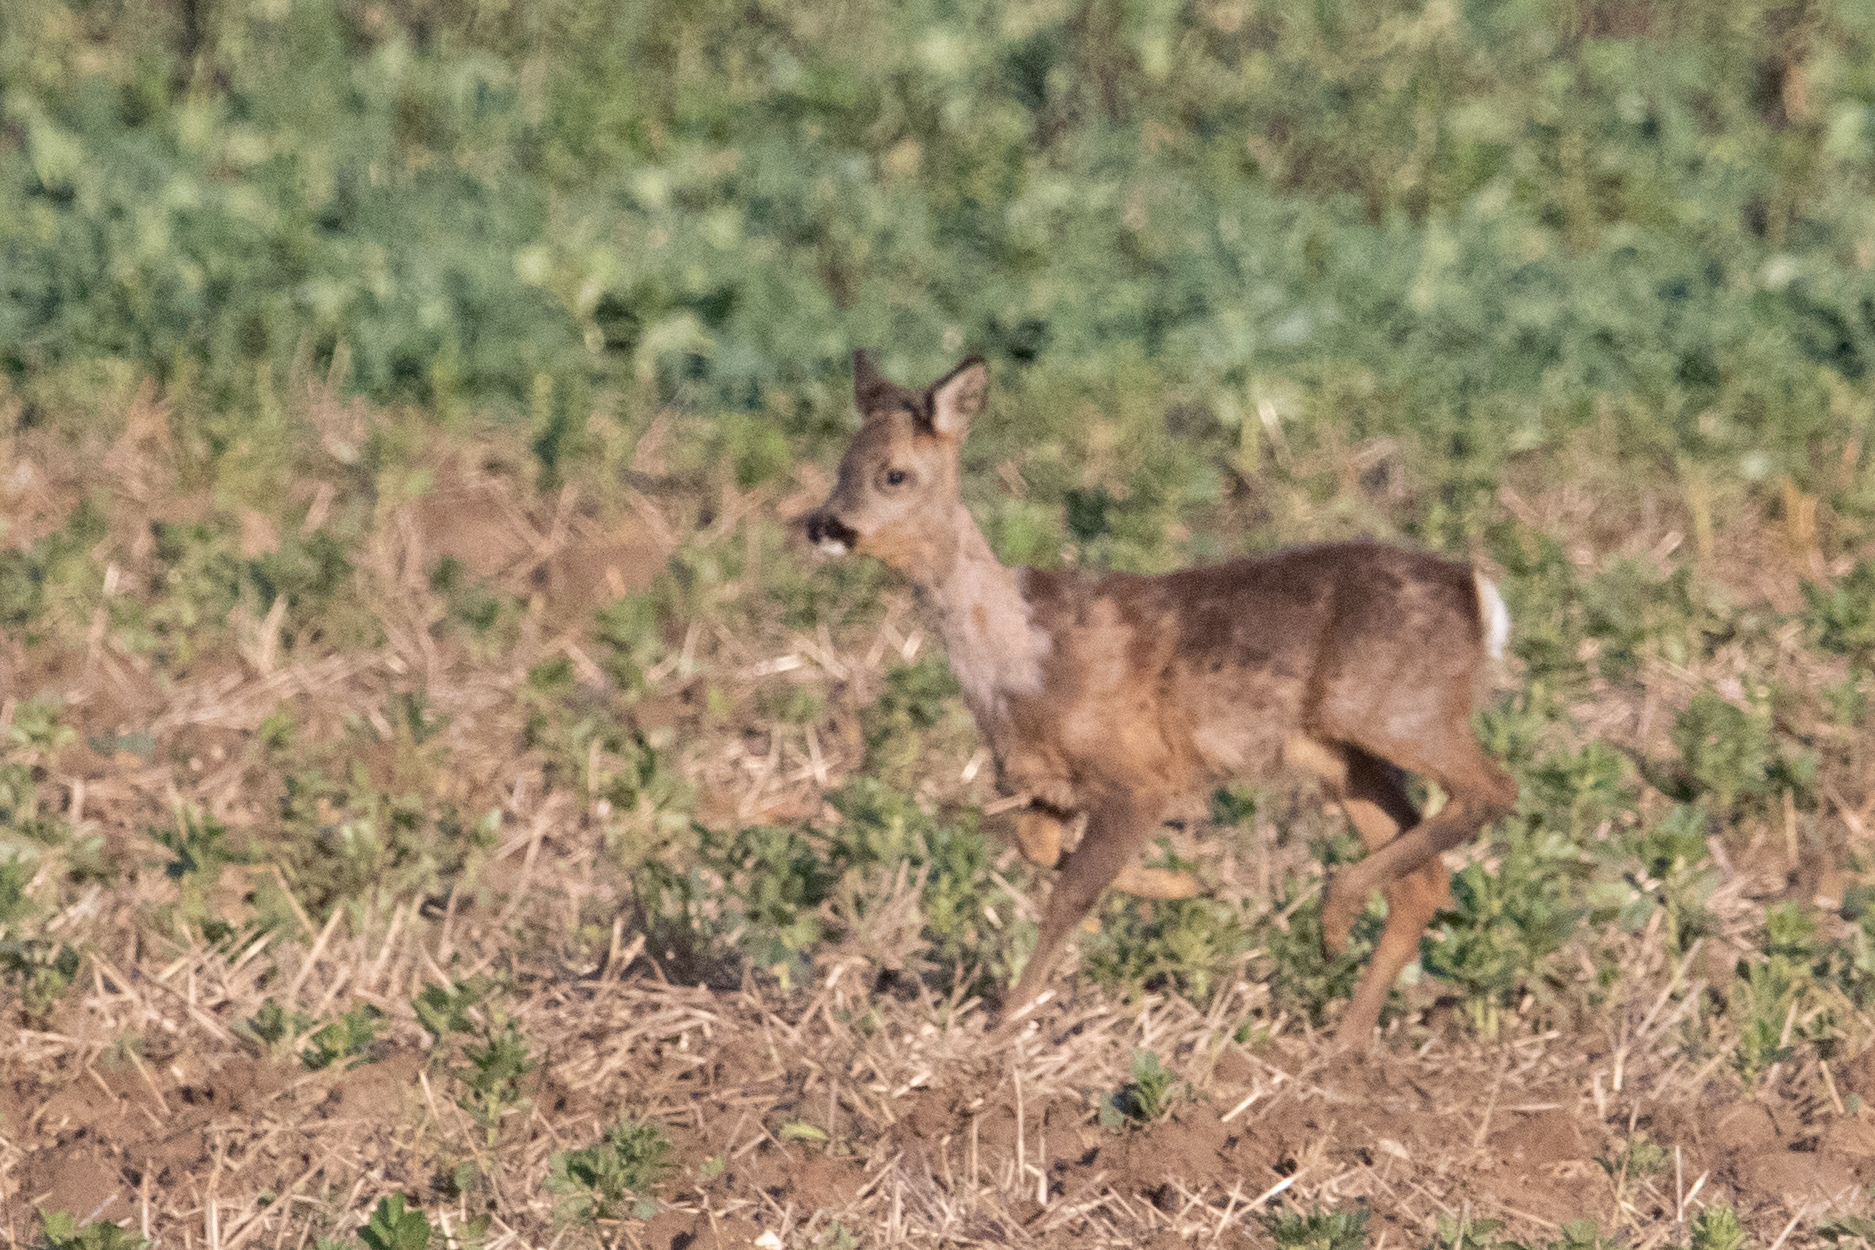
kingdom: Animalia
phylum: Chordata
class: Mammalia
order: Artiodactyla
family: Cervidae
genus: Capreolus
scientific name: Capreolus capreolus
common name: Western roe deer
